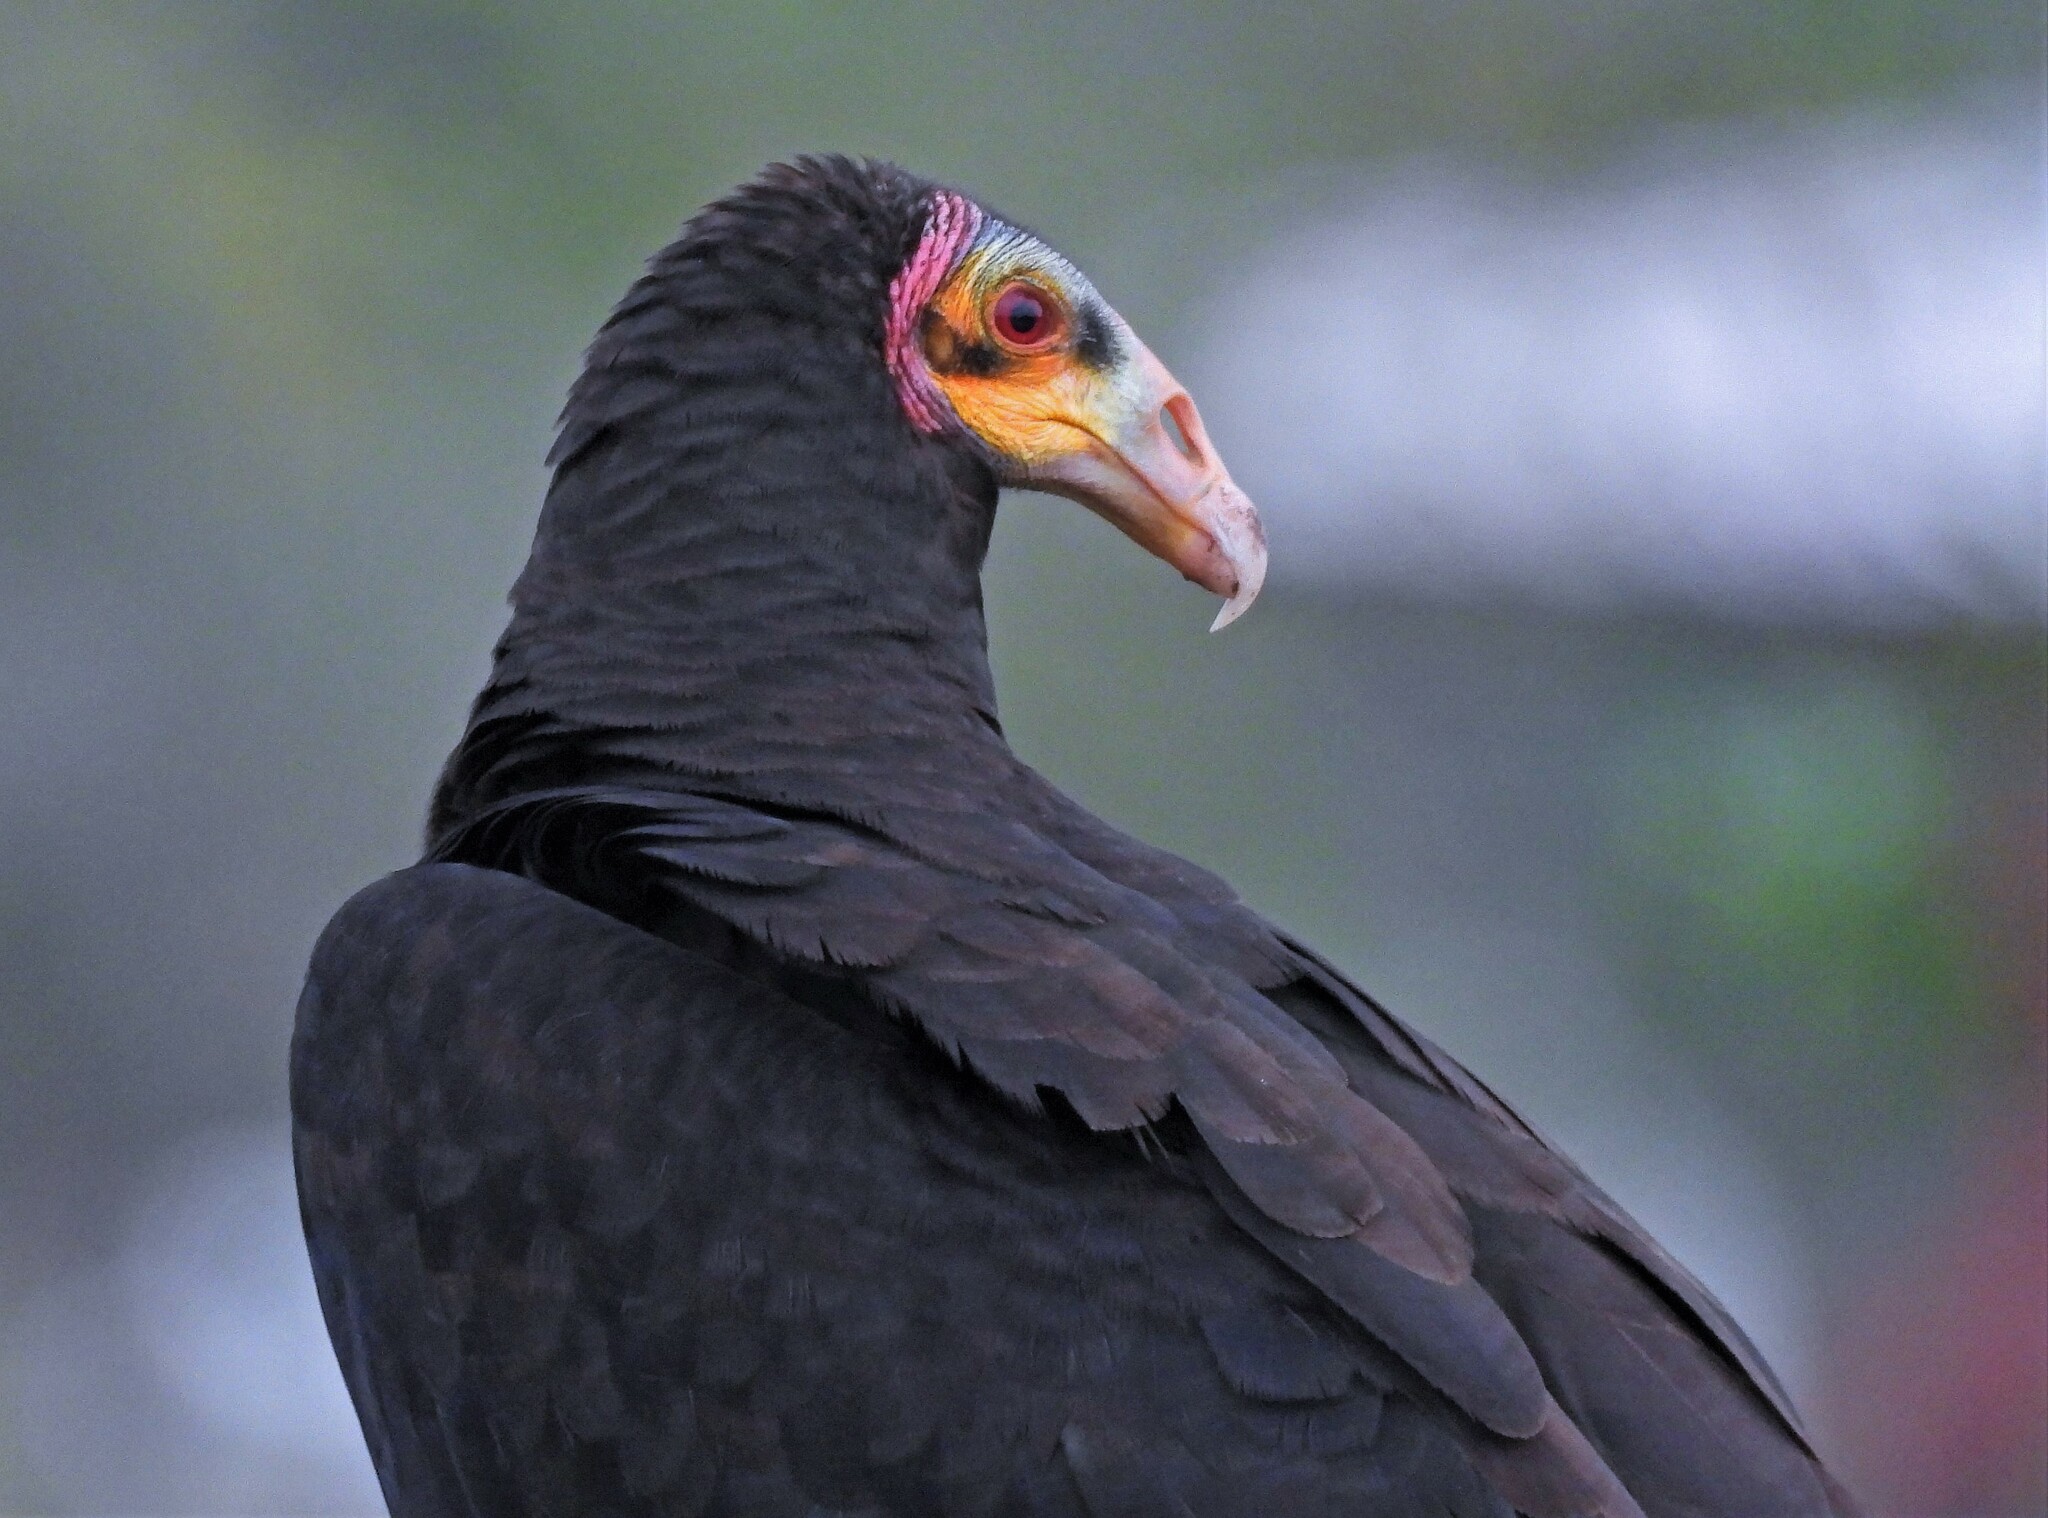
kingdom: Animalia
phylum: Chordata
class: Aves
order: Accipitriformes
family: Cathartidae
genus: Cathartes
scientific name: Cathartes burrovianus
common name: Lesser yellow-headed vulture
